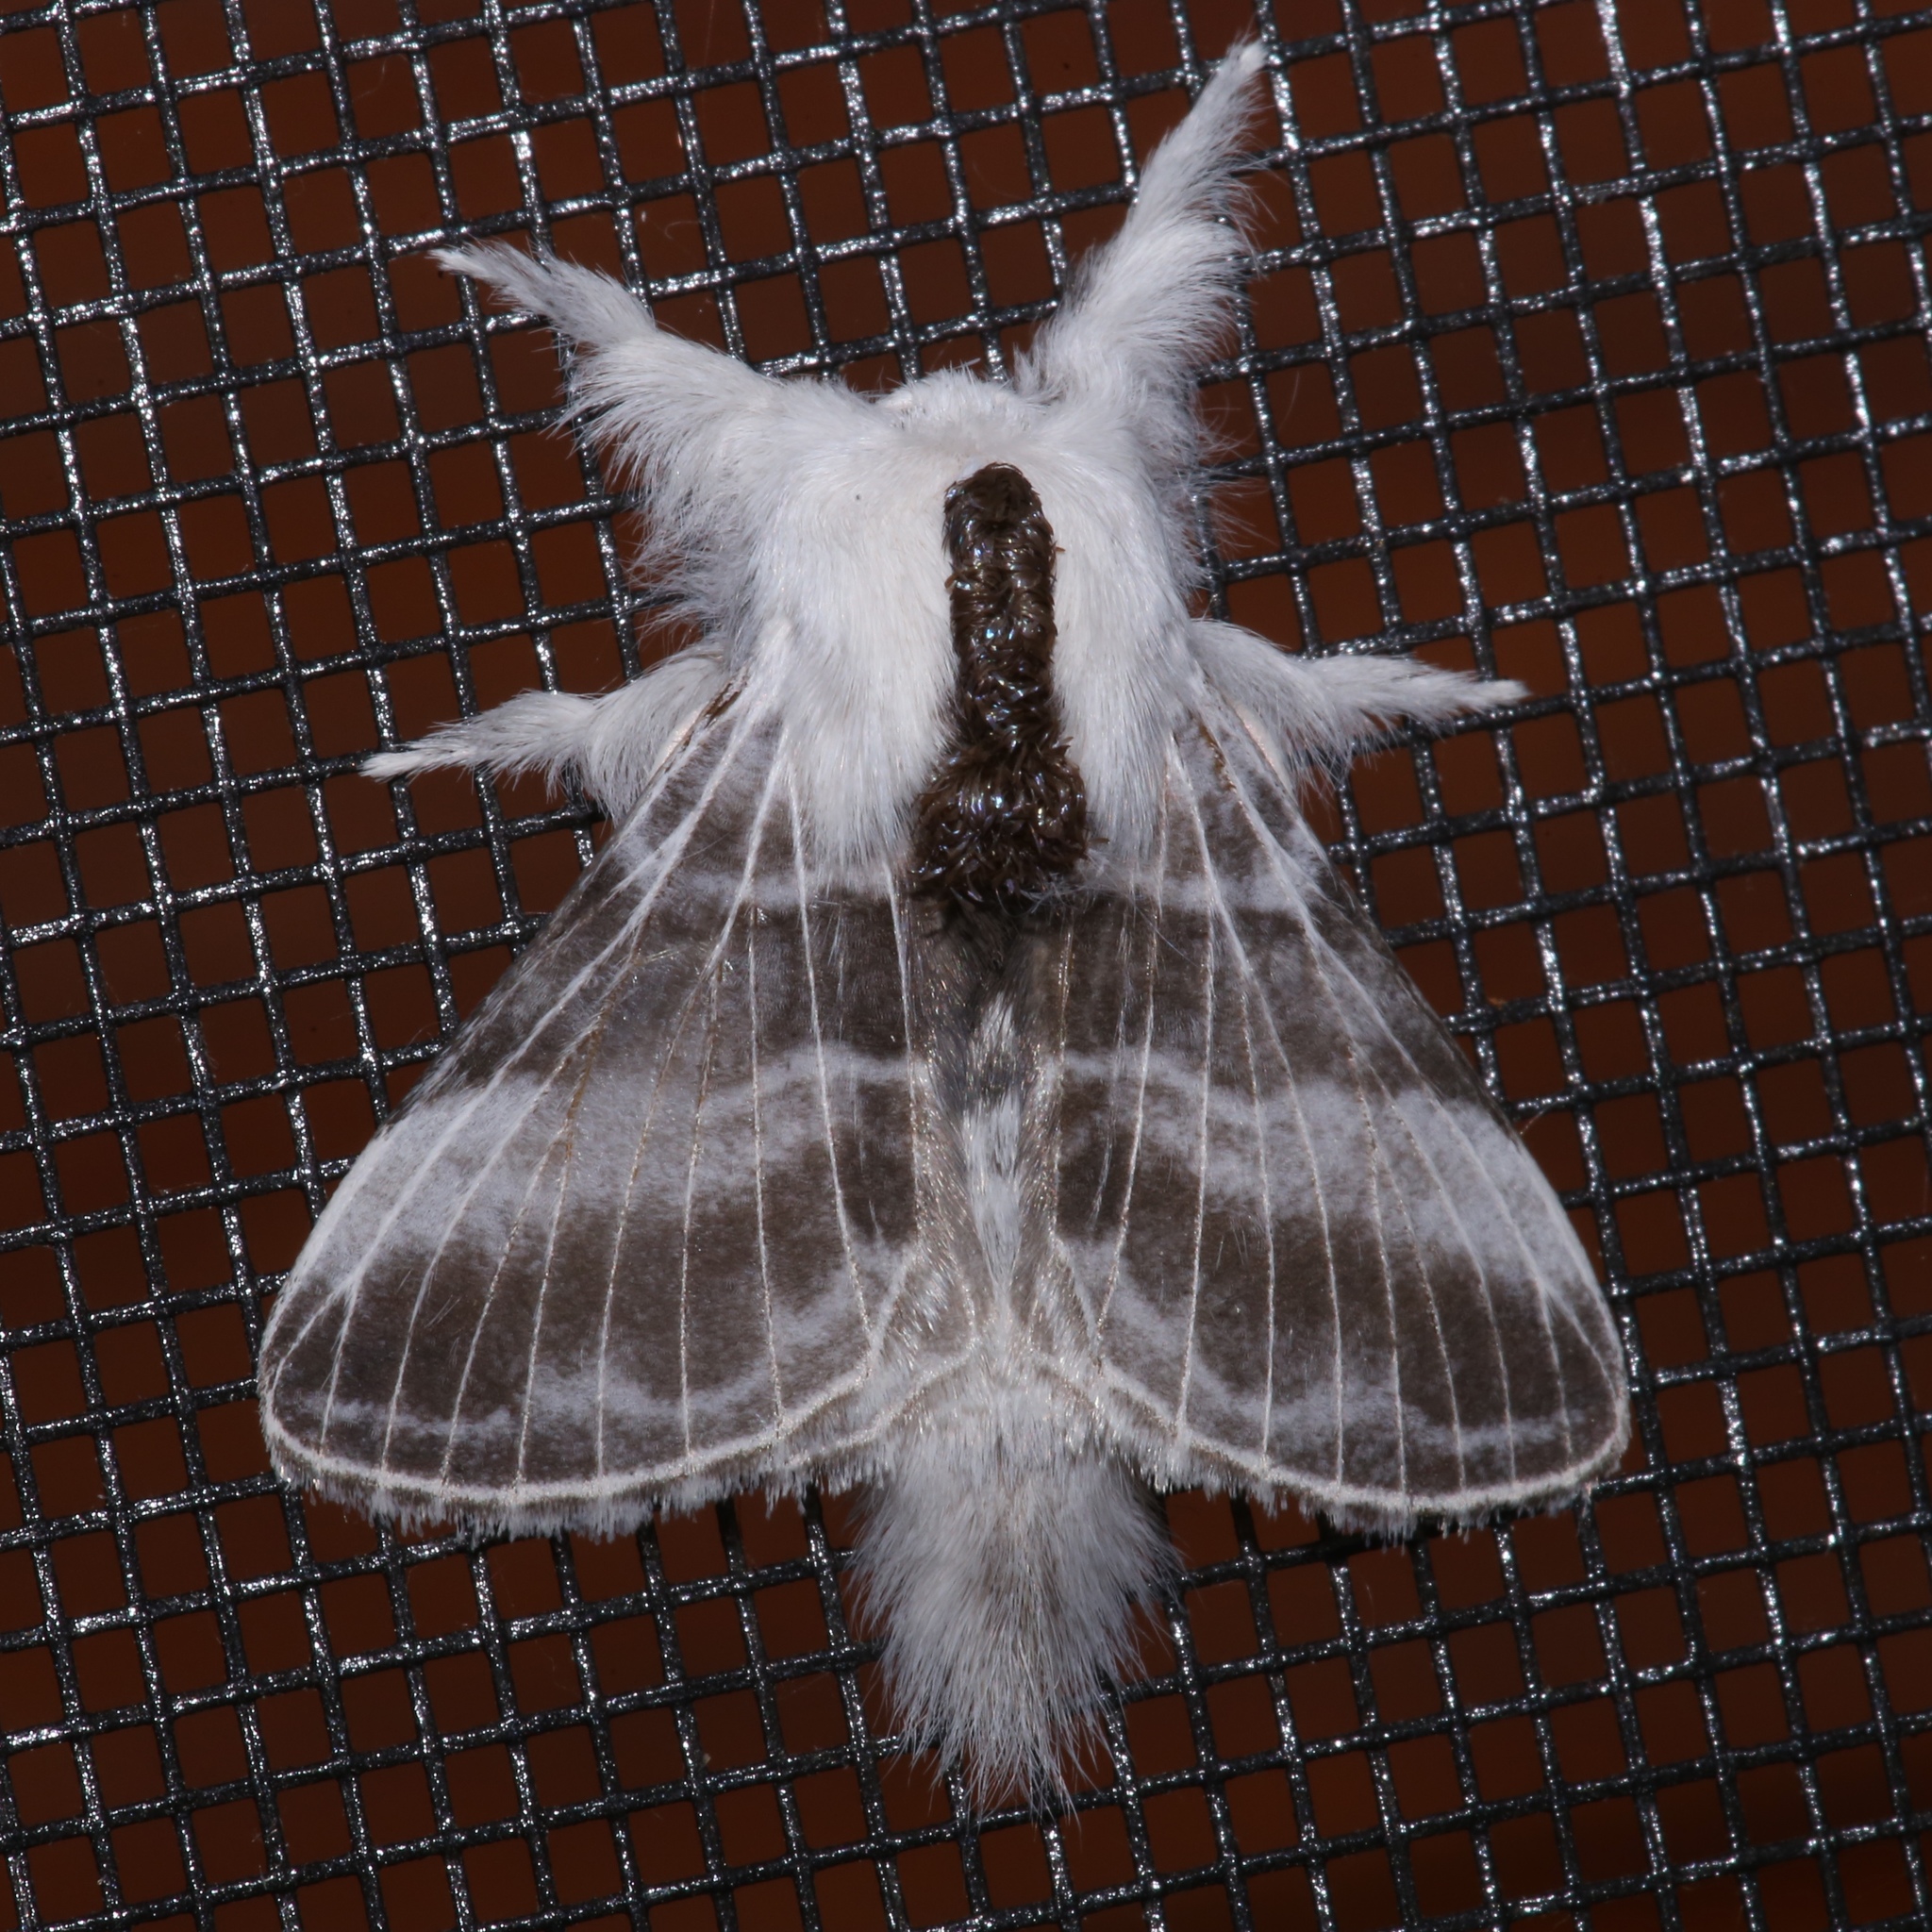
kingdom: Animalia
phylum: Arthropoda
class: Insecta
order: Lepidoptera
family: Lasiocampidae
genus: Tolype
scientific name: Tolype velleda
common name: Large tolype moth
